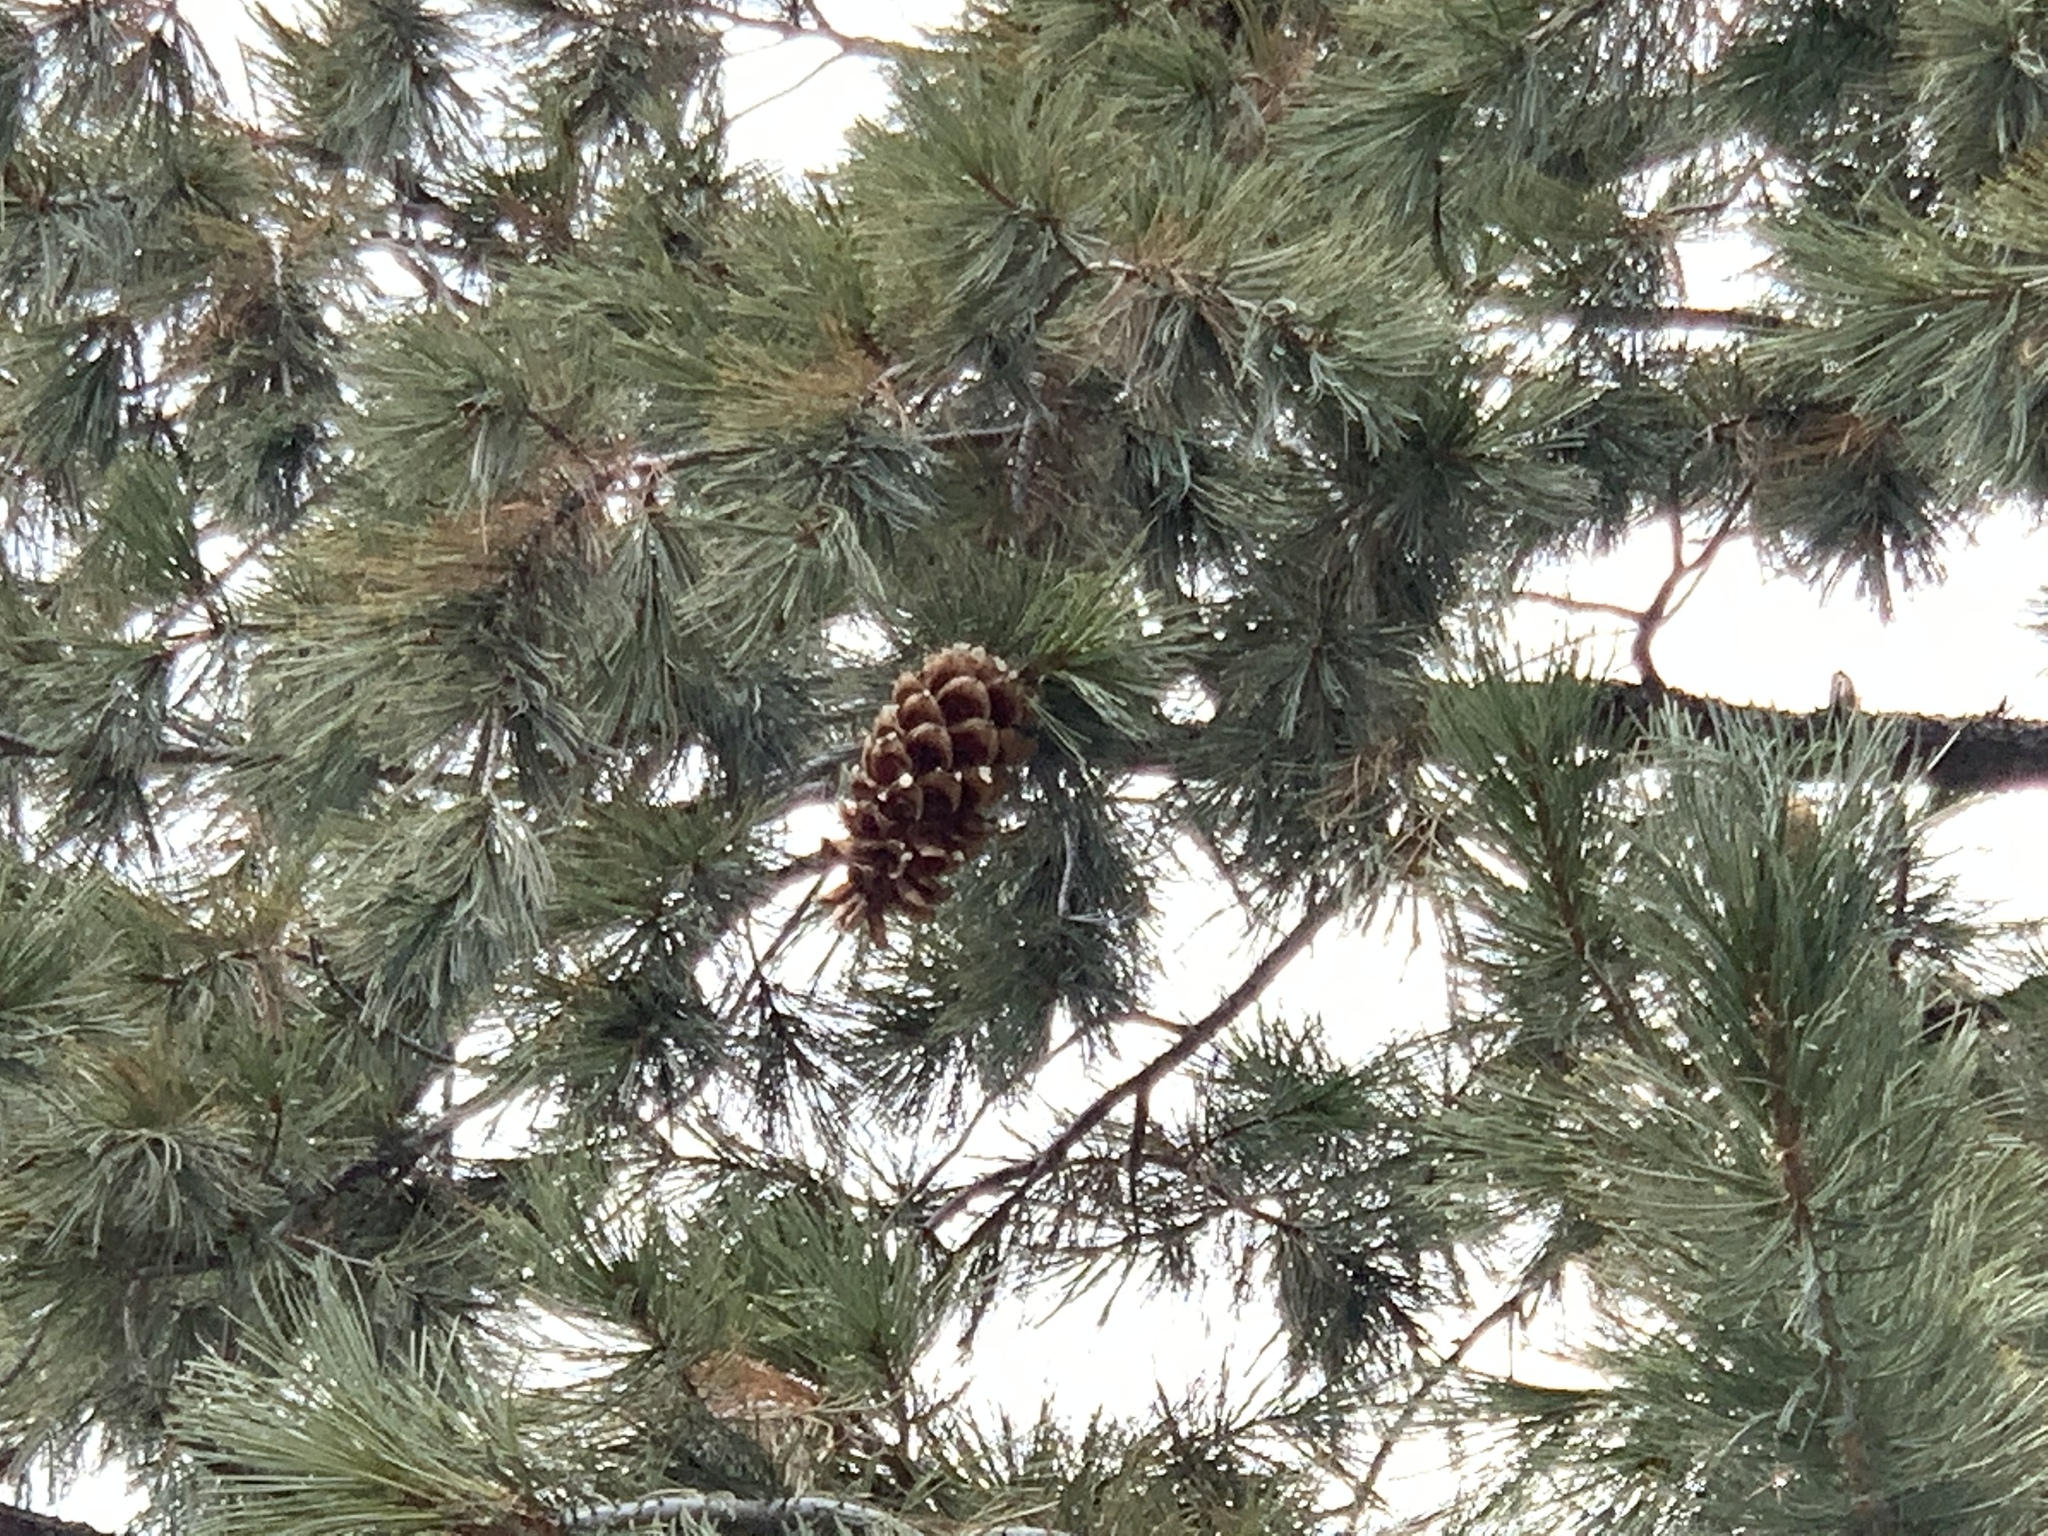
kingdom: Plantae
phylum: Tracheophyta
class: Pinopsida
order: Pinales
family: Pinaceae
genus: Pinus
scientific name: Pinus strobiformis
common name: Southwestern white pine
